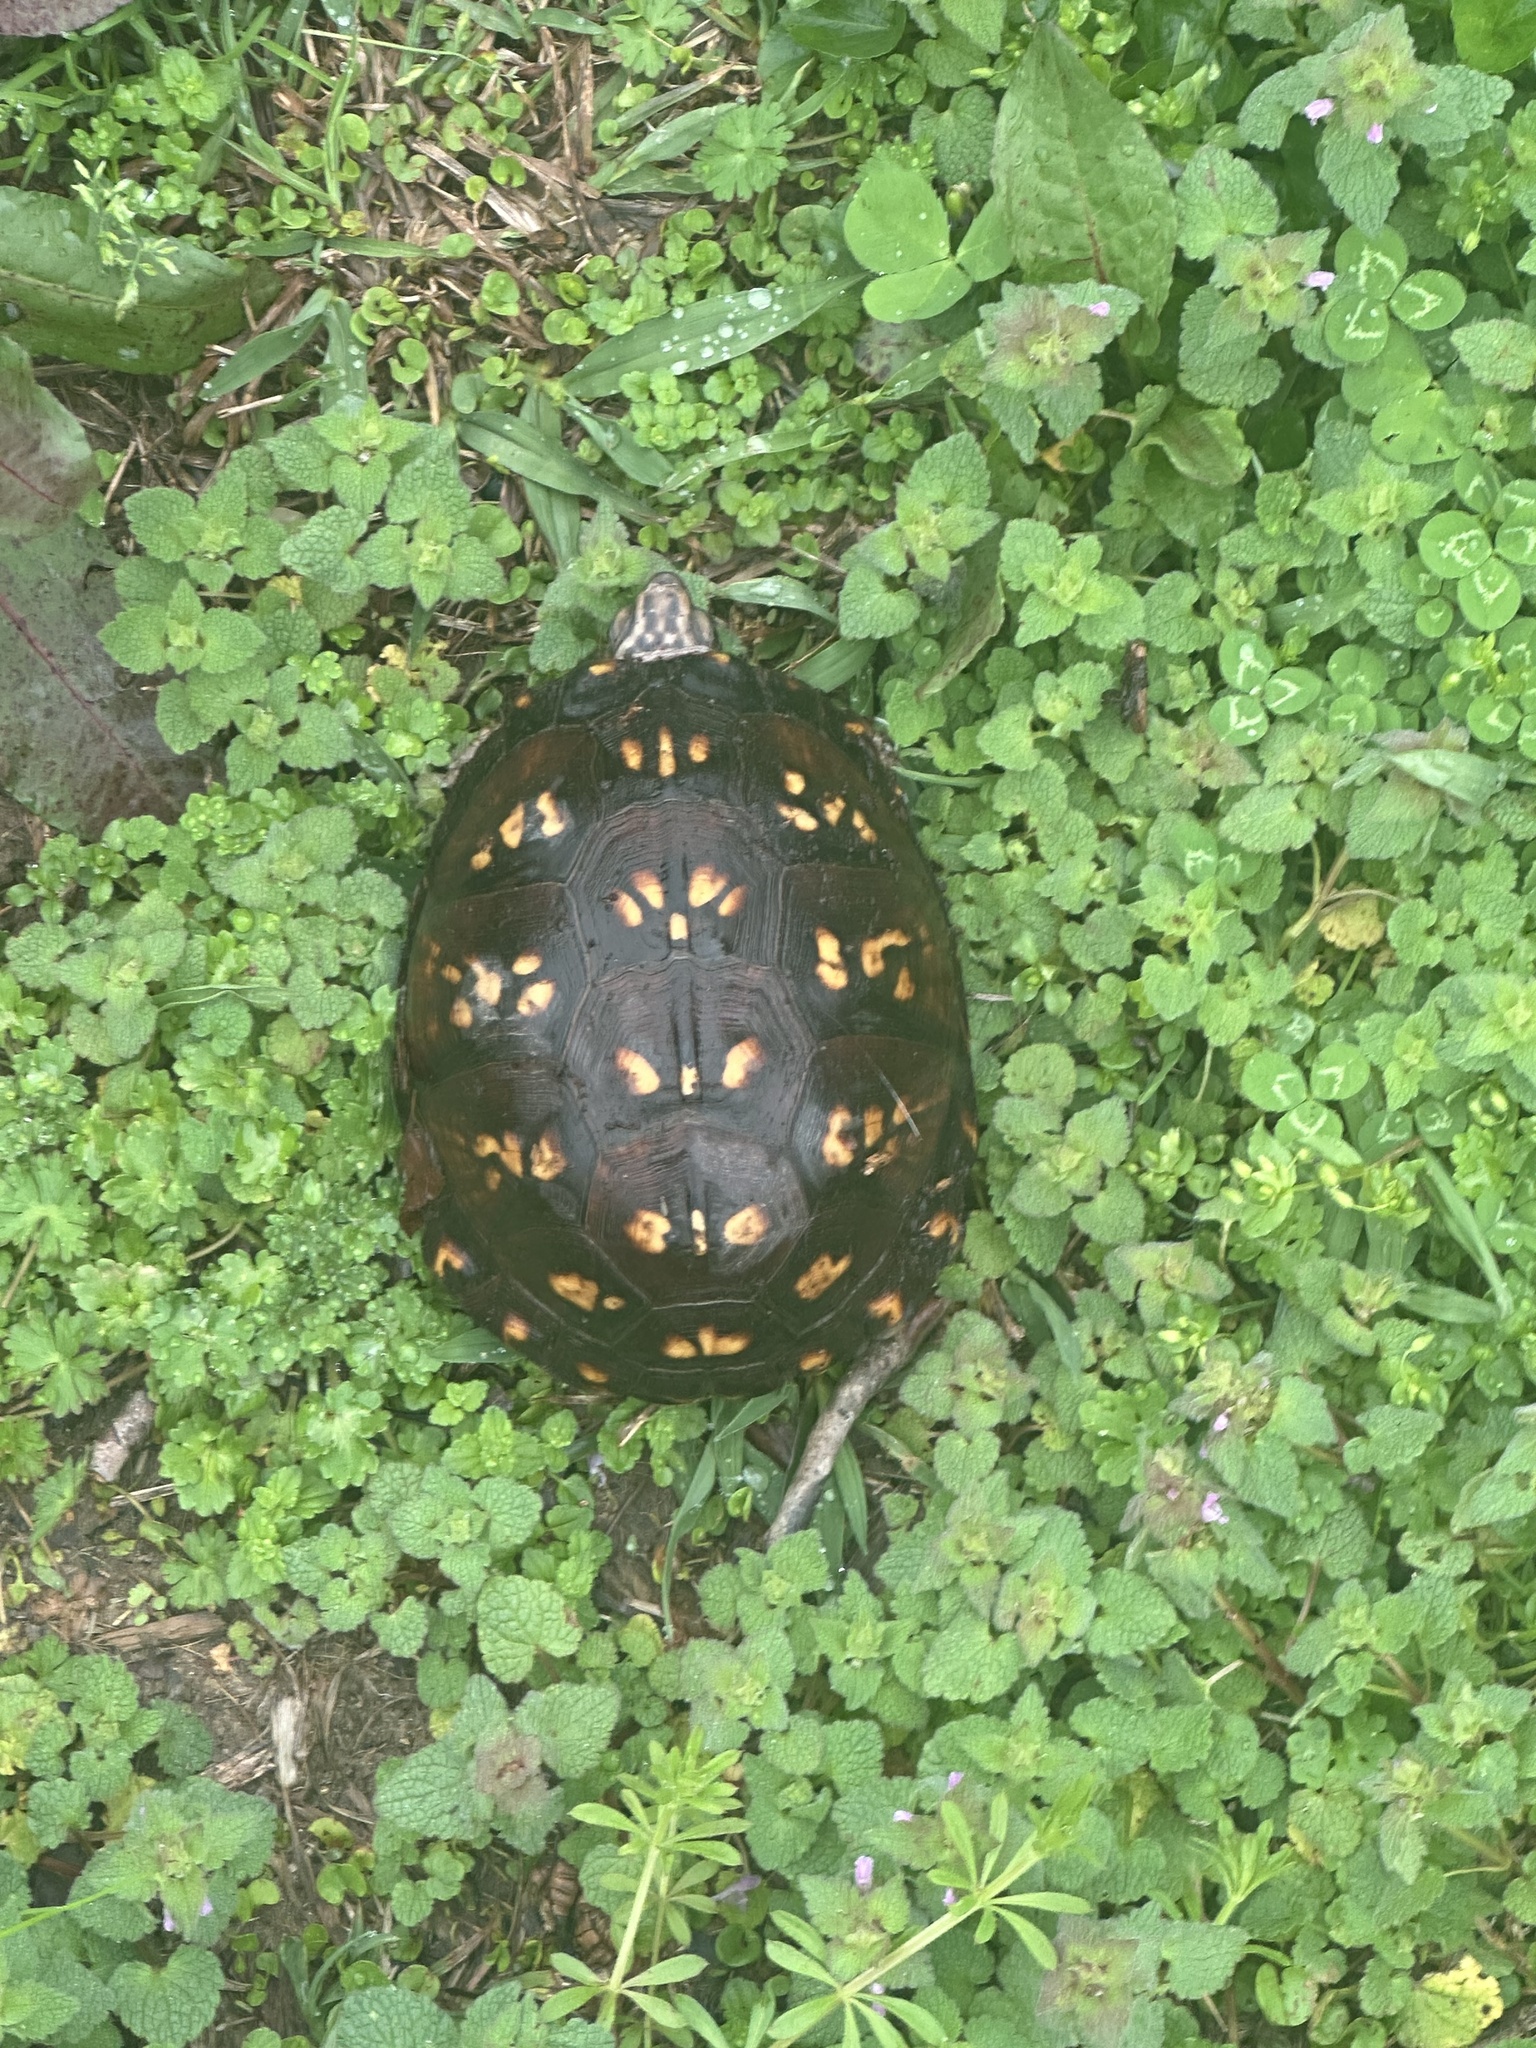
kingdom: Animalia
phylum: Chordata
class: Testudines
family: Emydidae
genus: Terrapene
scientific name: Terrapene carolina
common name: Common box turtle
